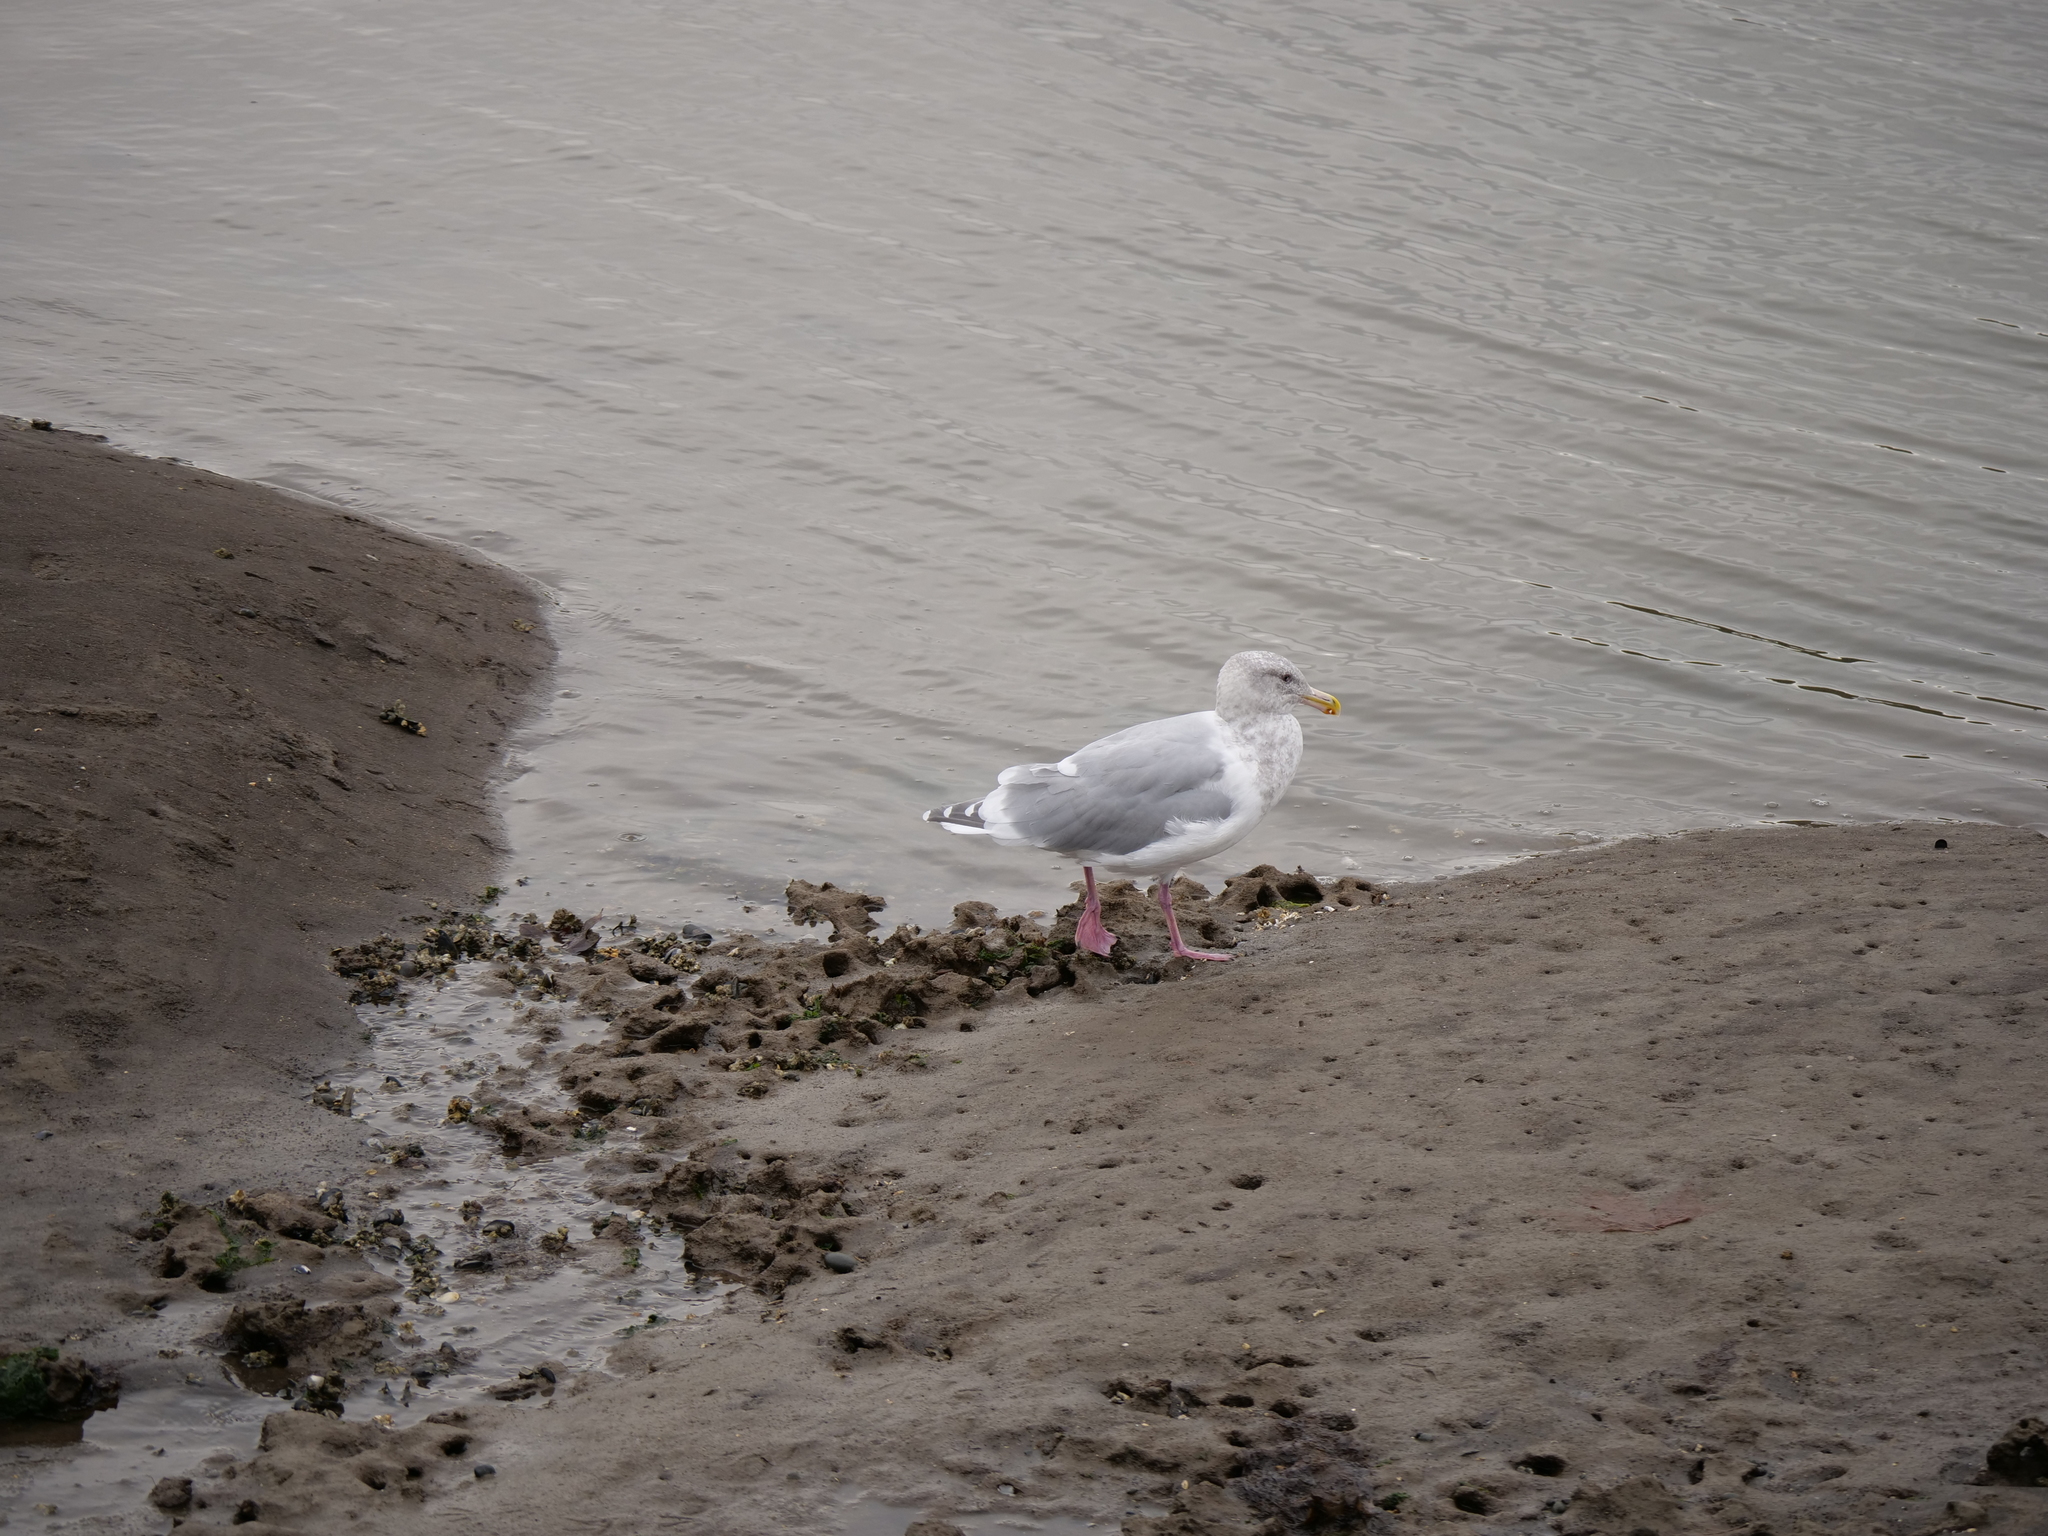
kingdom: Animalia
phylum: Chordata
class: Aves
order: Charadriiformes
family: Laridae
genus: Larus
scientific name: Larus
